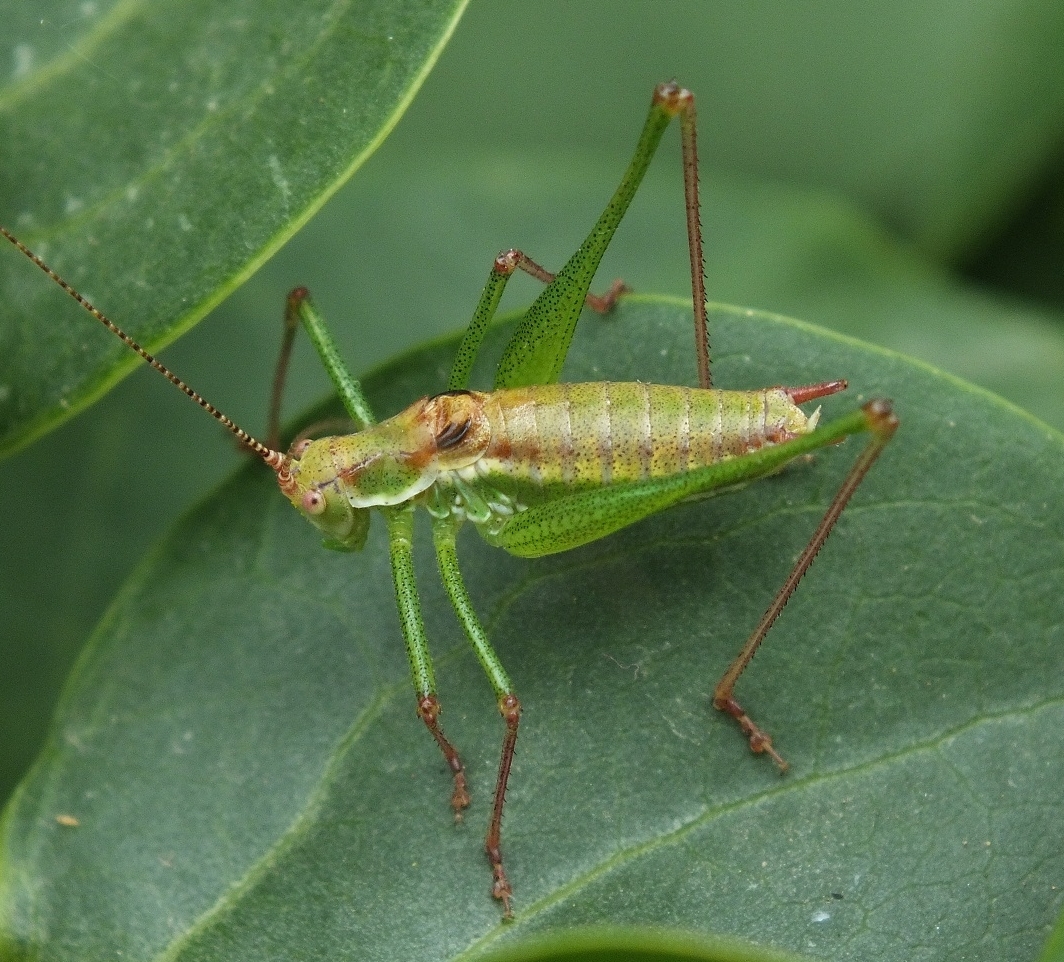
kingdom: Animalia
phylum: Arthropoda
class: Insecta
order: Orthoptera
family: Tettigoniidae
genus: Leptophyes
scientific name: Leptophyes albovittata
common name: Striped bush-cricket
